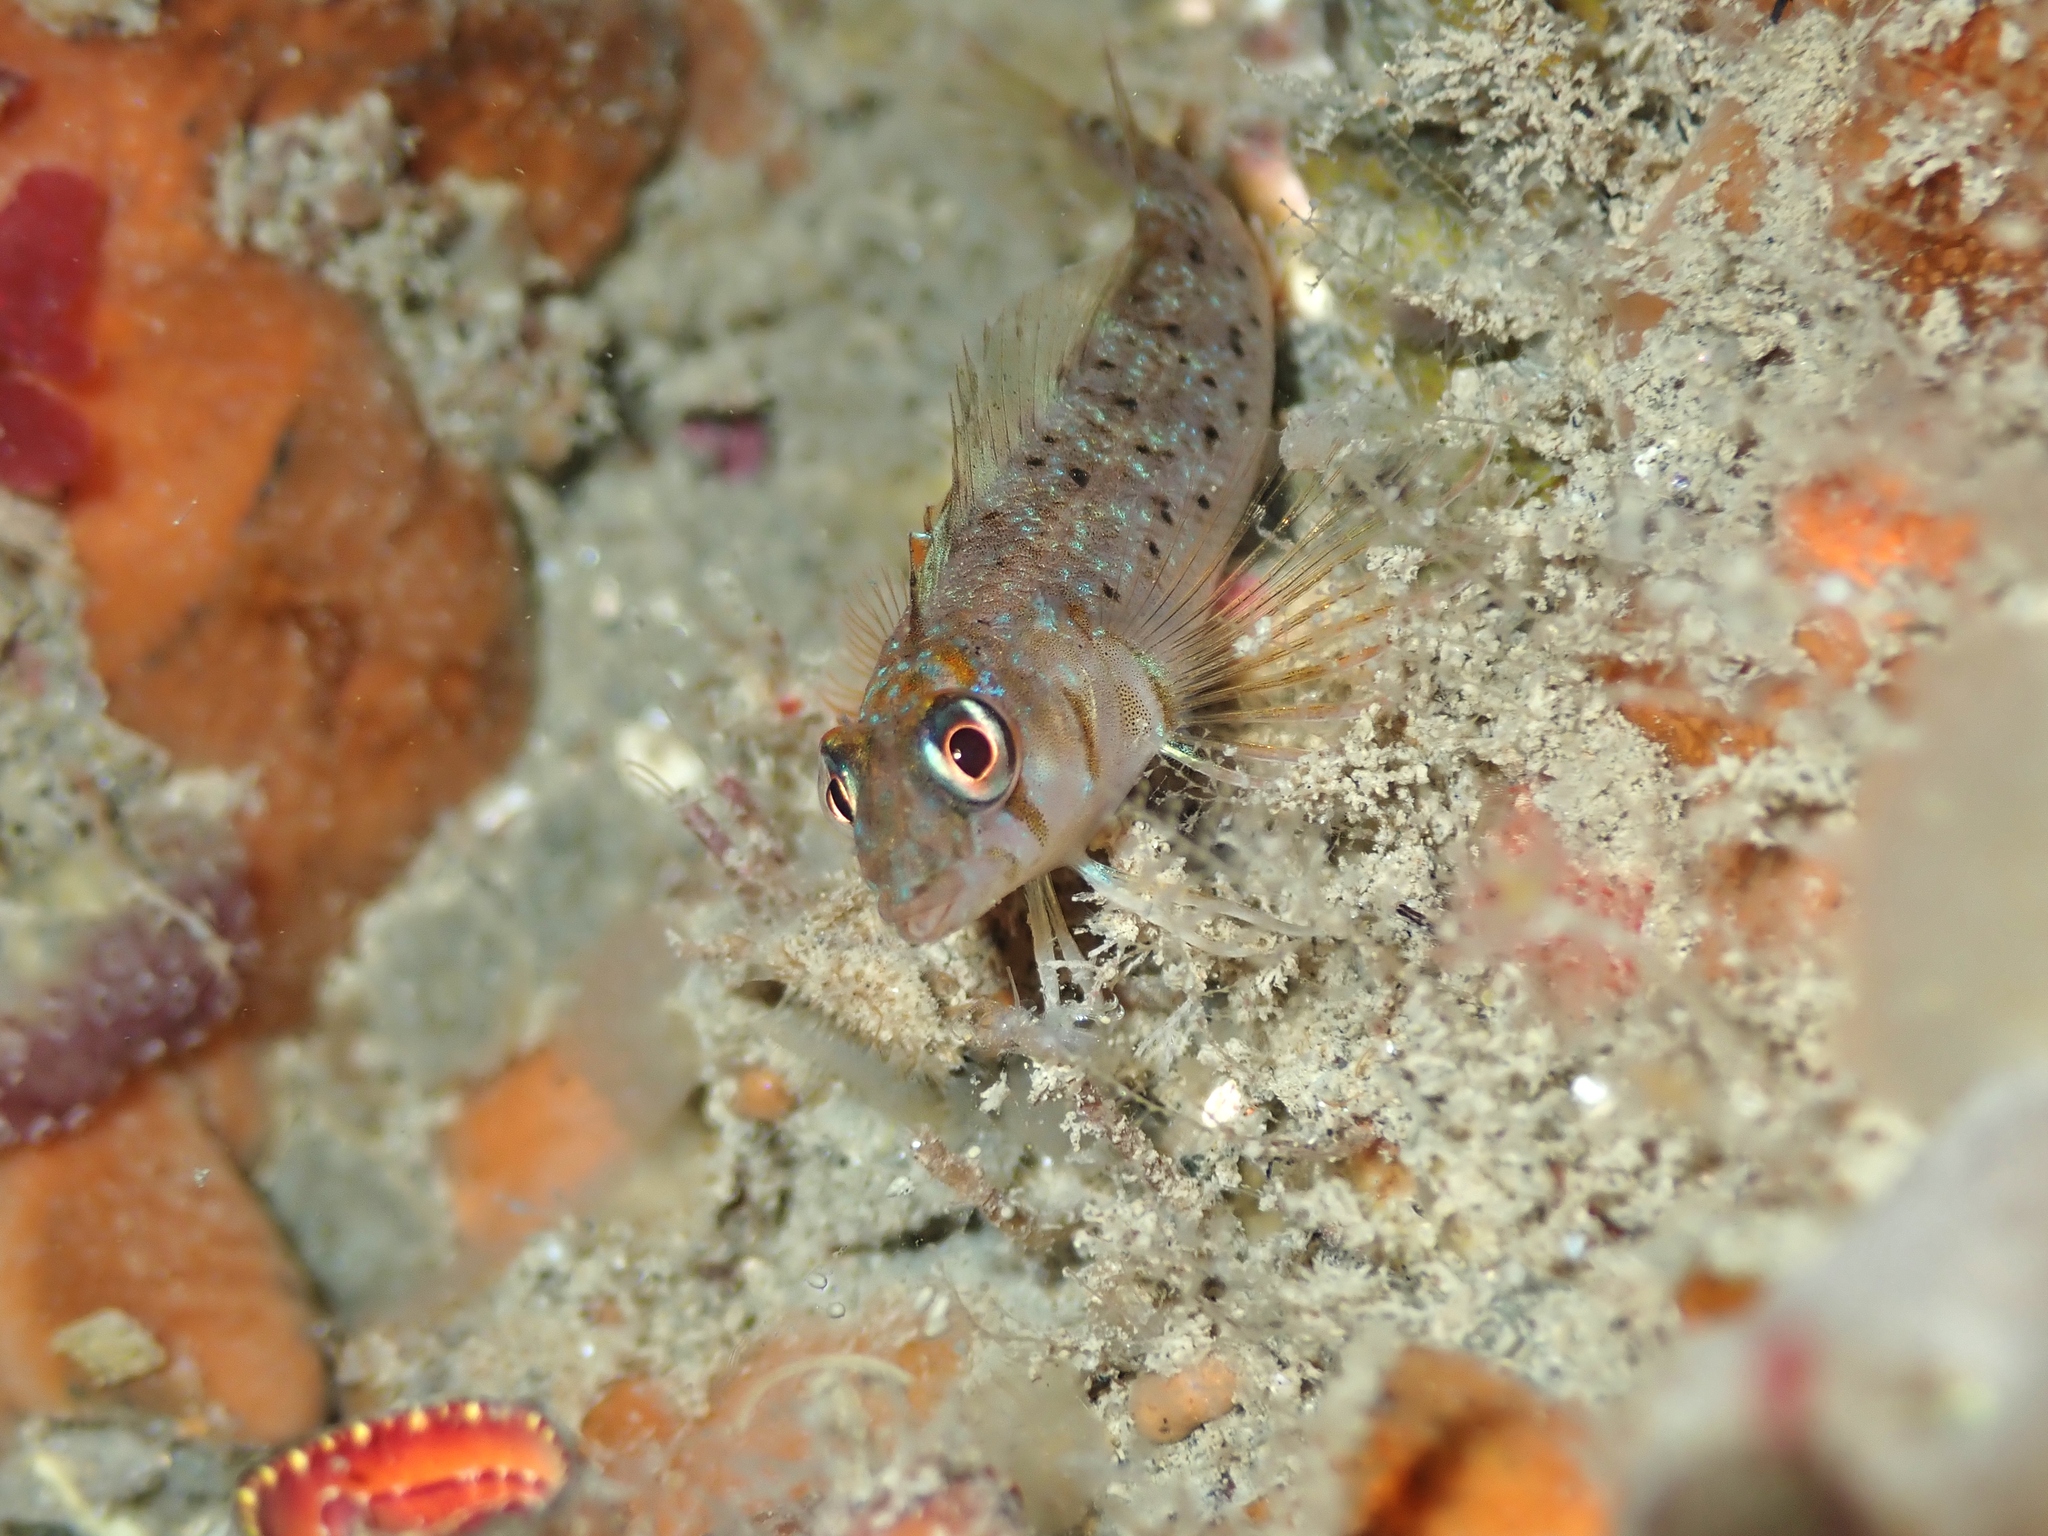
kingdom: Animalia
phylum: Chordata
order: Perciformes
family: Tripterygiidae
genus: Notoclinops
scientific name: Notoclinops yaldwyni
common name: Yaldwyn's triplefin
